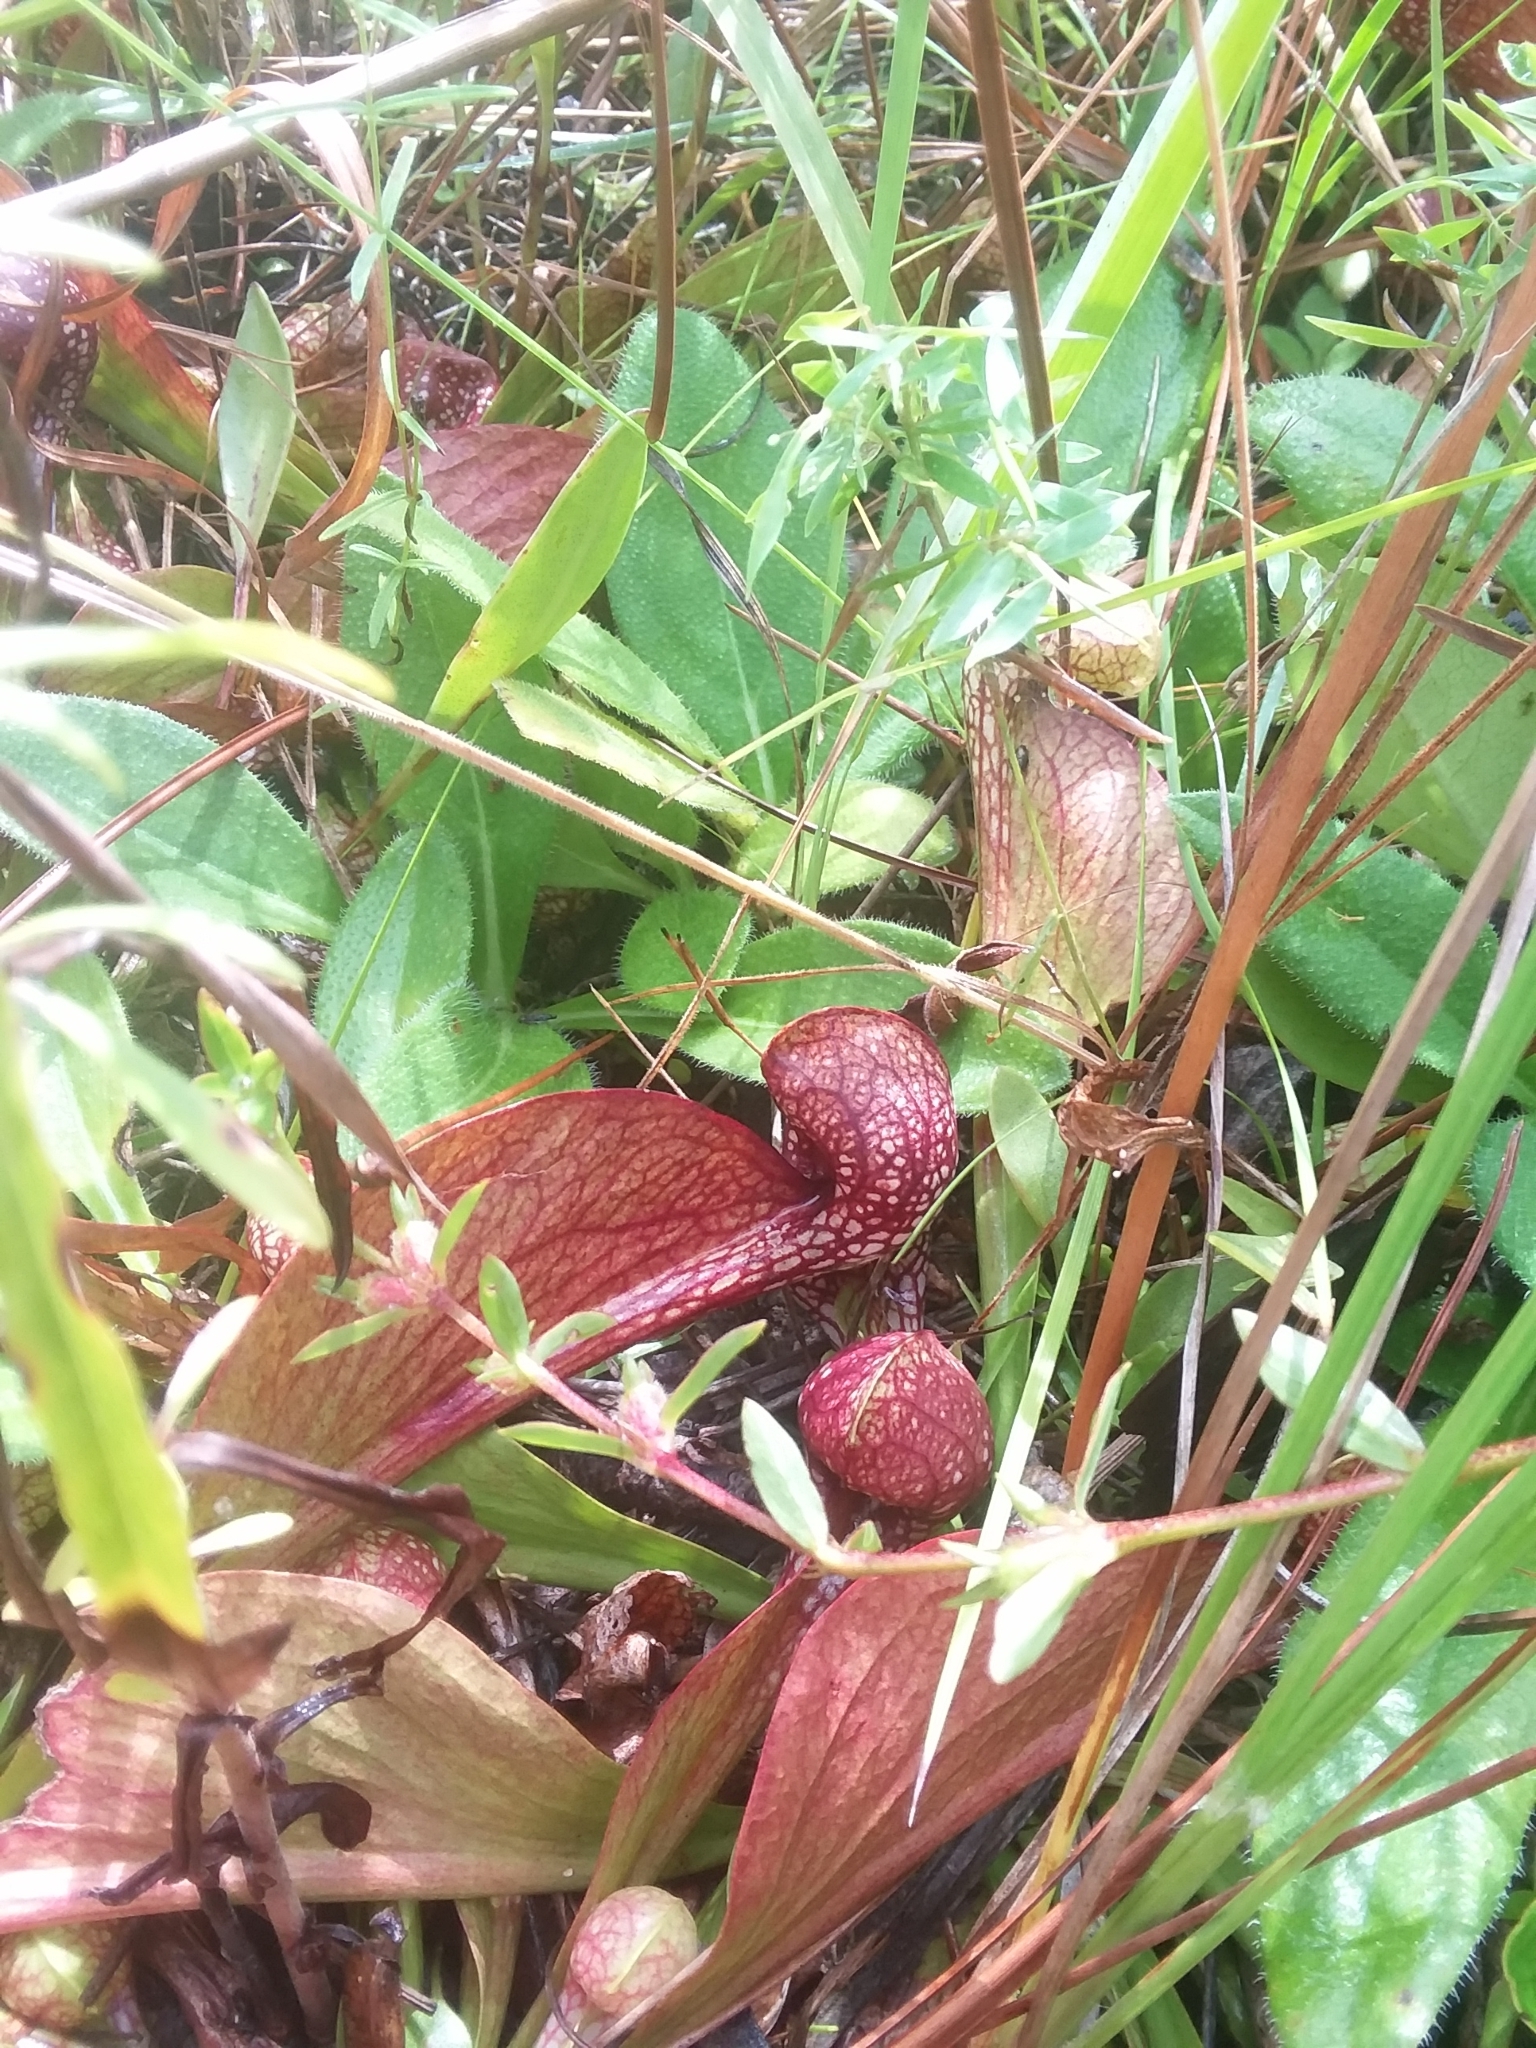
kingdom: Plantae
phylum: Tracheophyta
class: Magnoliopsida
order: Ericales
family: Sarraceniaceae
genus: Sarracenia
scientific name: Sarracenia psittacina
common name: Parrot pitcherplant
